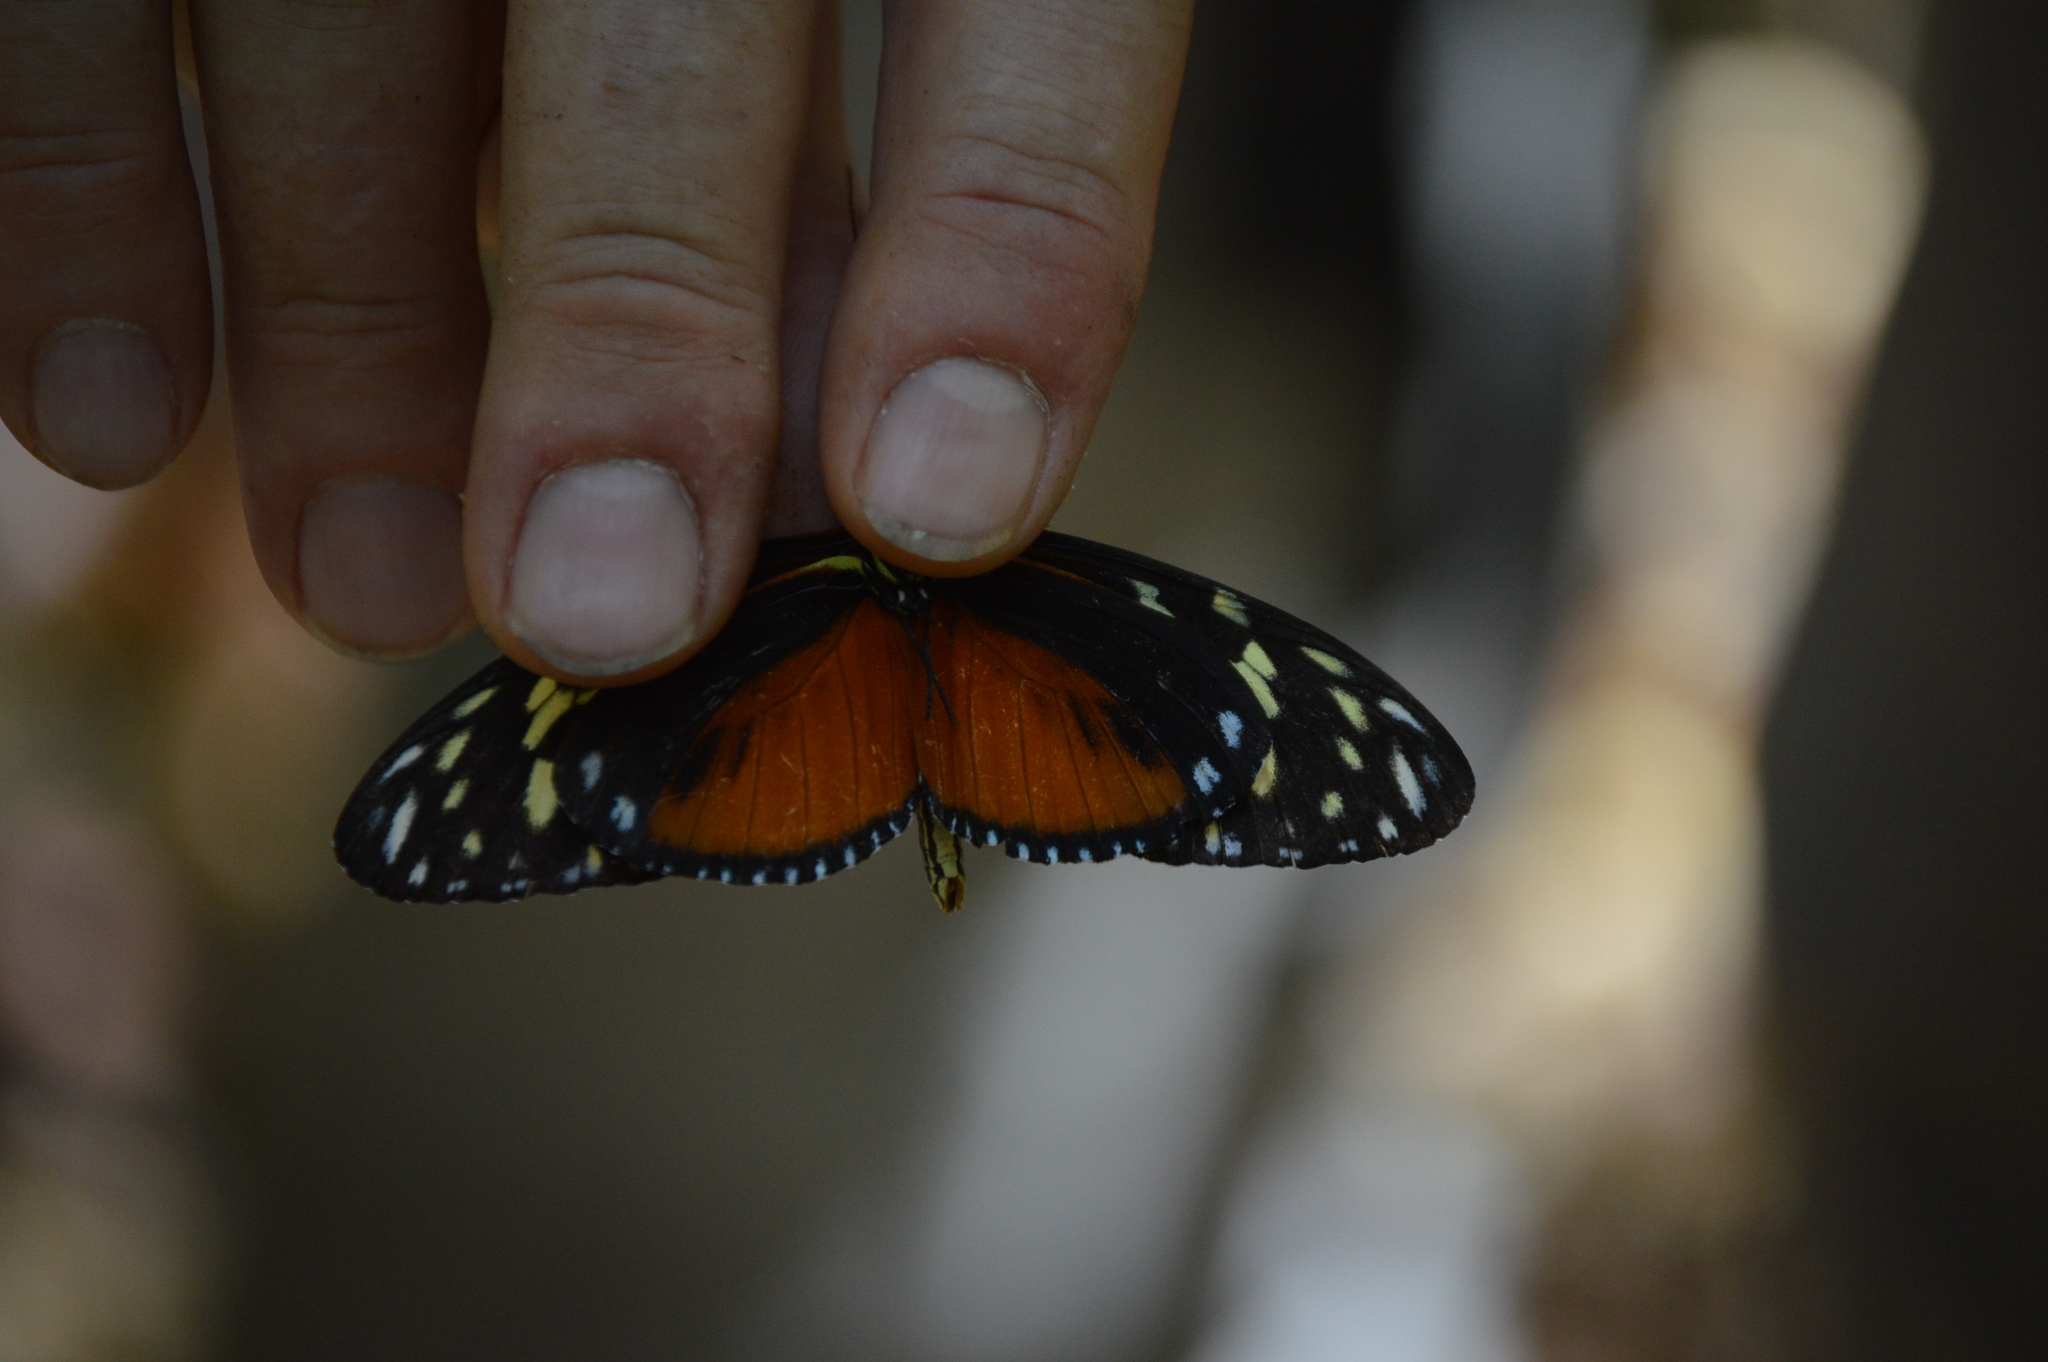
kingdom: Animalia
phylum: Arthropoda
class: Insecta
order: Lepidoptera
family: Nymphalidae
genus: Heliconius
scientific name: Heliconius hecale
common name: Tiger longwing
